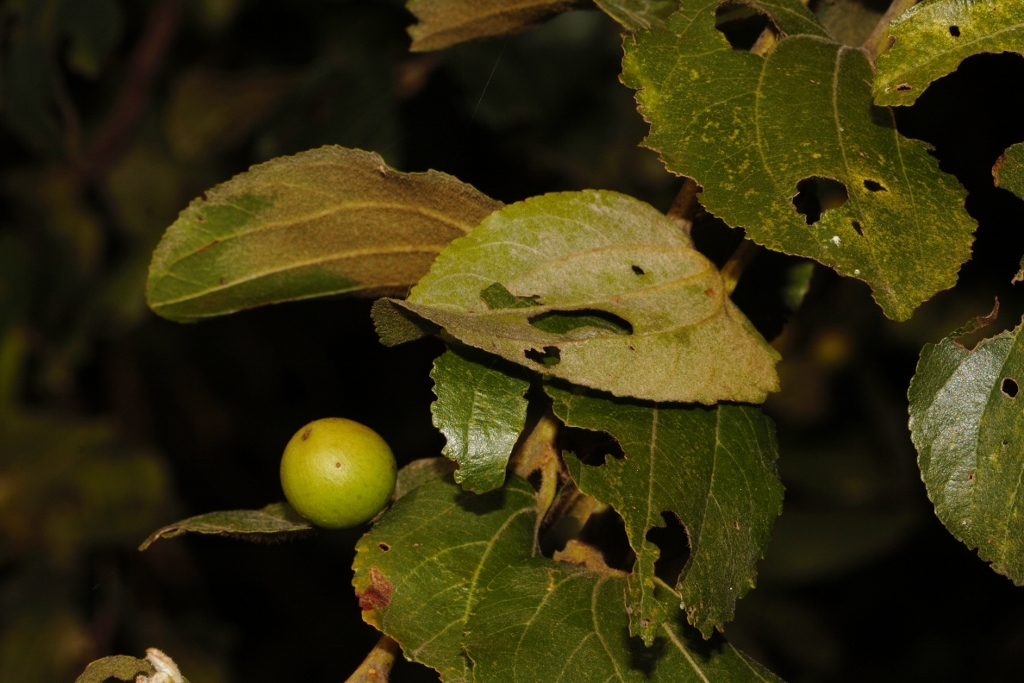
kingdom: Plantae
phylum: Tracheophyta
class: Magnoliopsida
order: Rosales
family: Rhamnaceae
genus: Ziziphus
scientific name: Ziziphus mucronata
